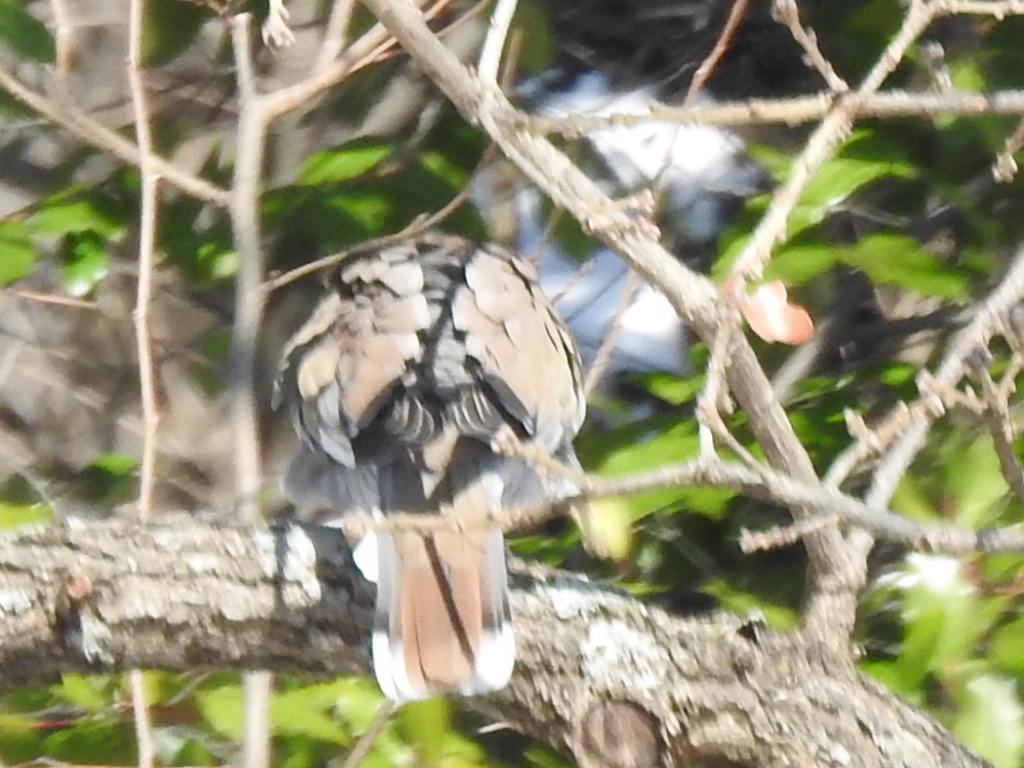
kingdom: Animalia
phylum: Chordata
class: Aves
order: Columbiformes
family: Columbidae
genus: Zenaida
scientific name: Zenaida asiatica
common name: White-winged dove
